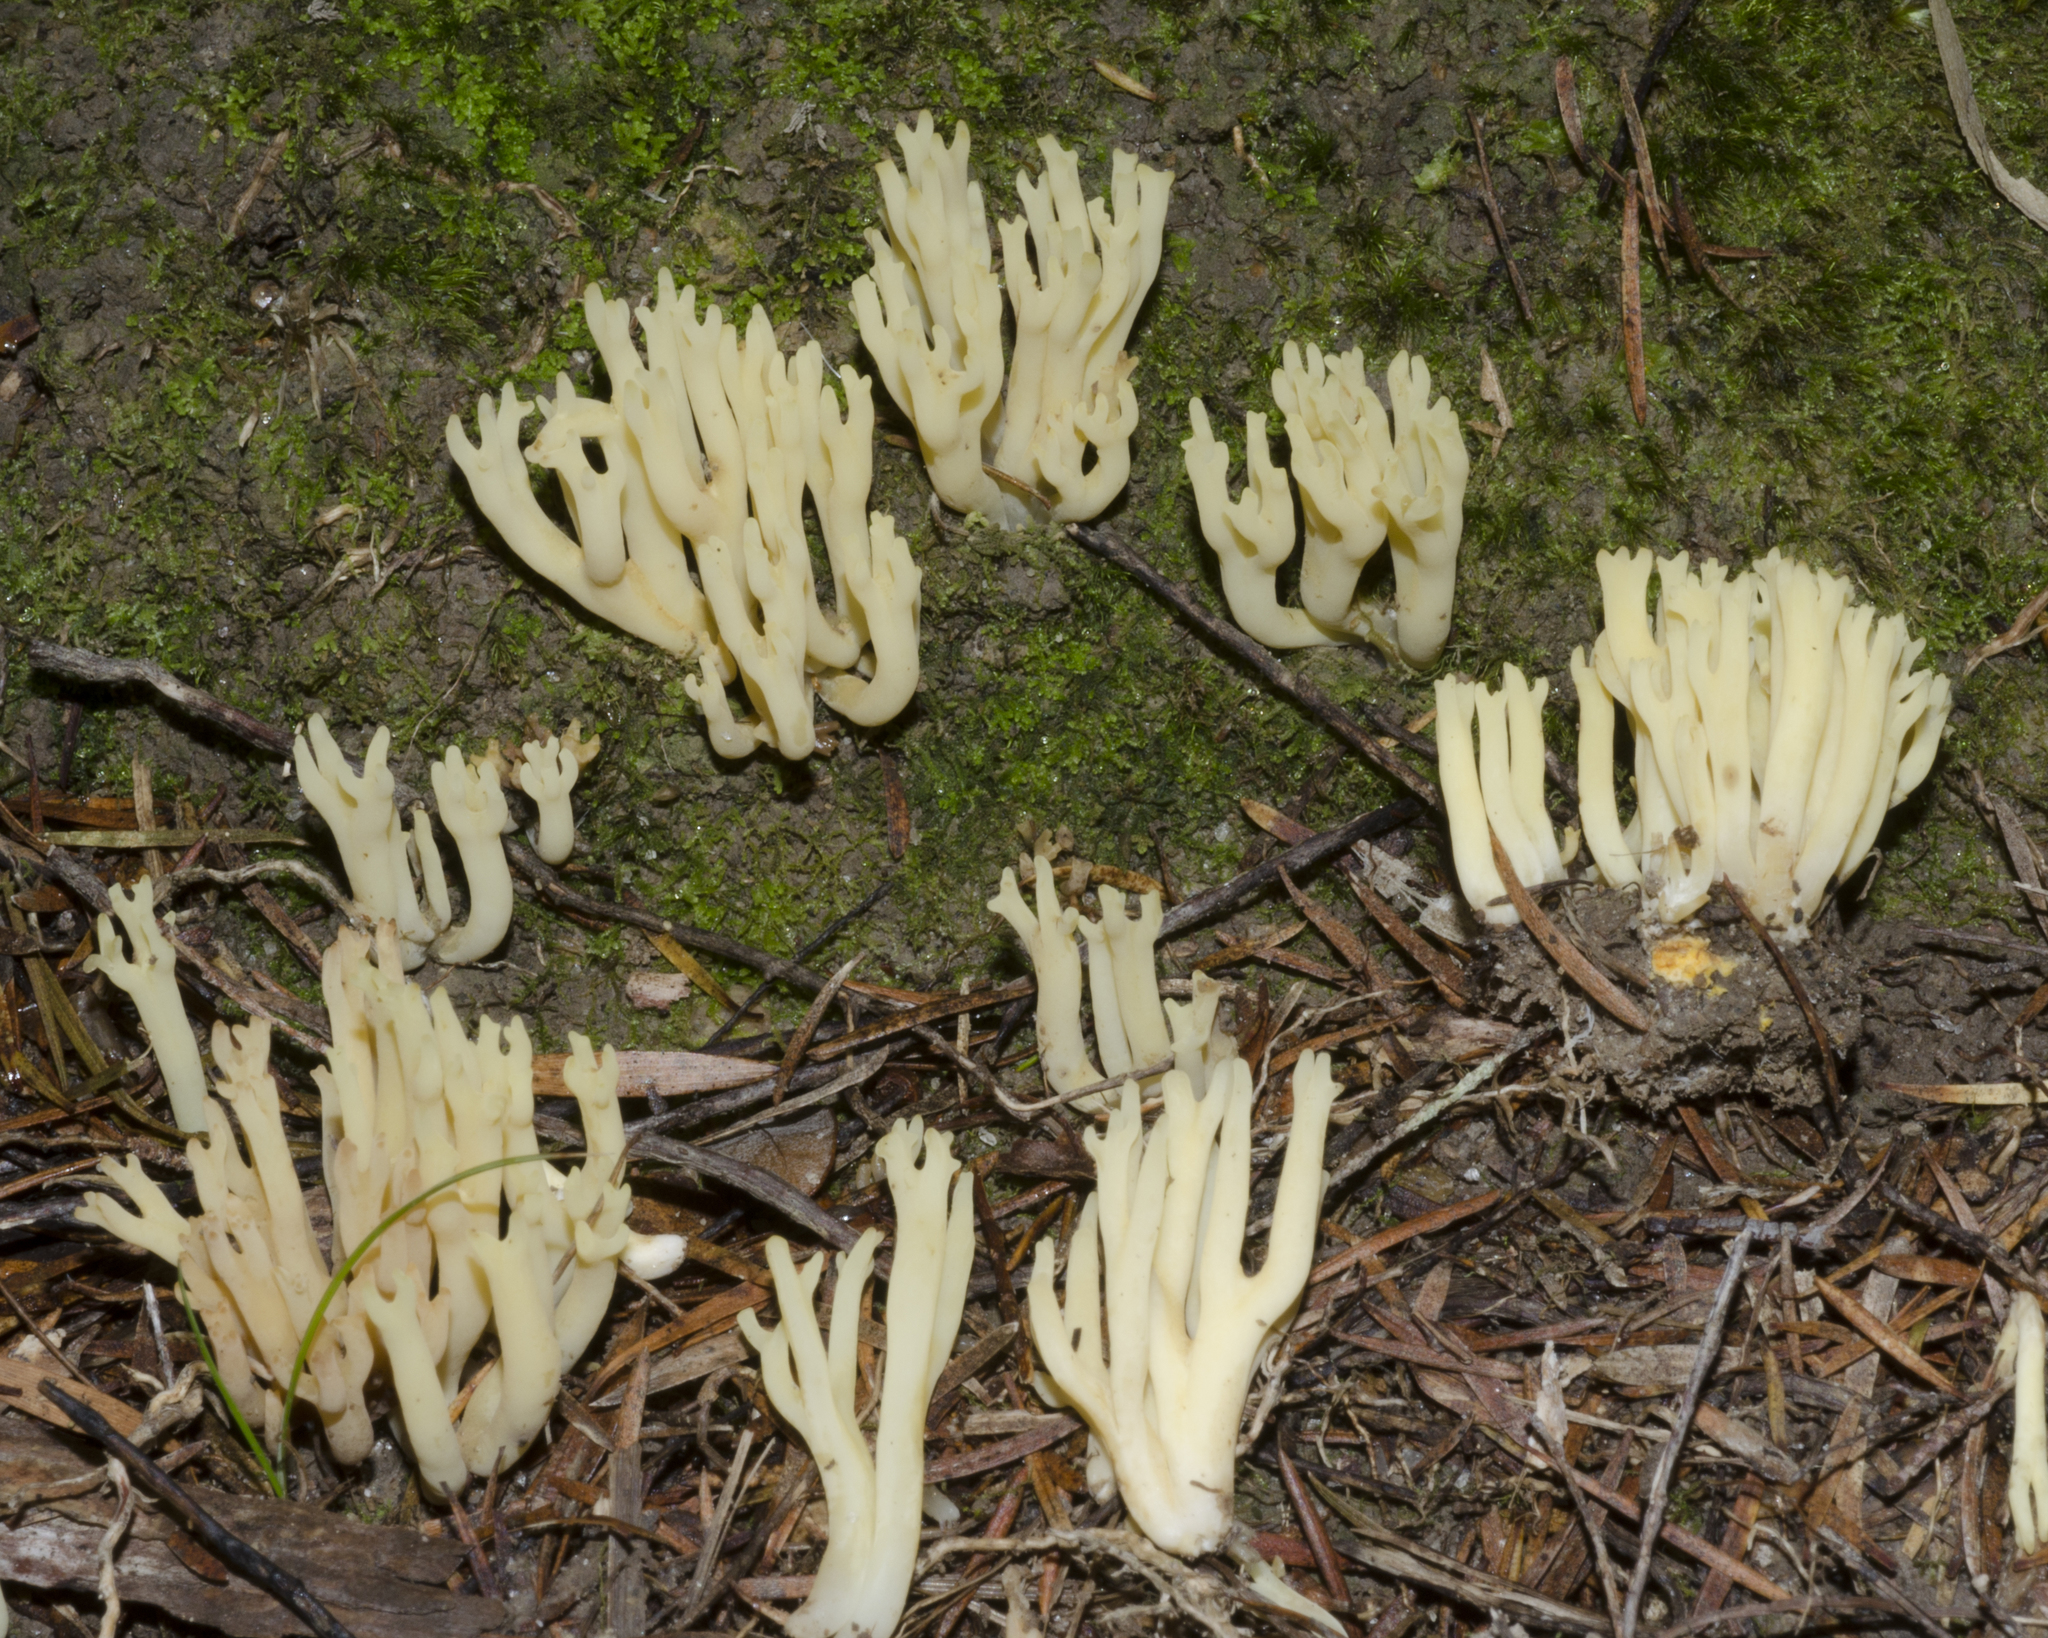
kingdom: Fungi
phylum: Basidiomycota
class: Agaricomycetes
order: Gomphales
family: Gomphaceae
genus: Ramaria
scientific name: Ramaria lorithamnus
